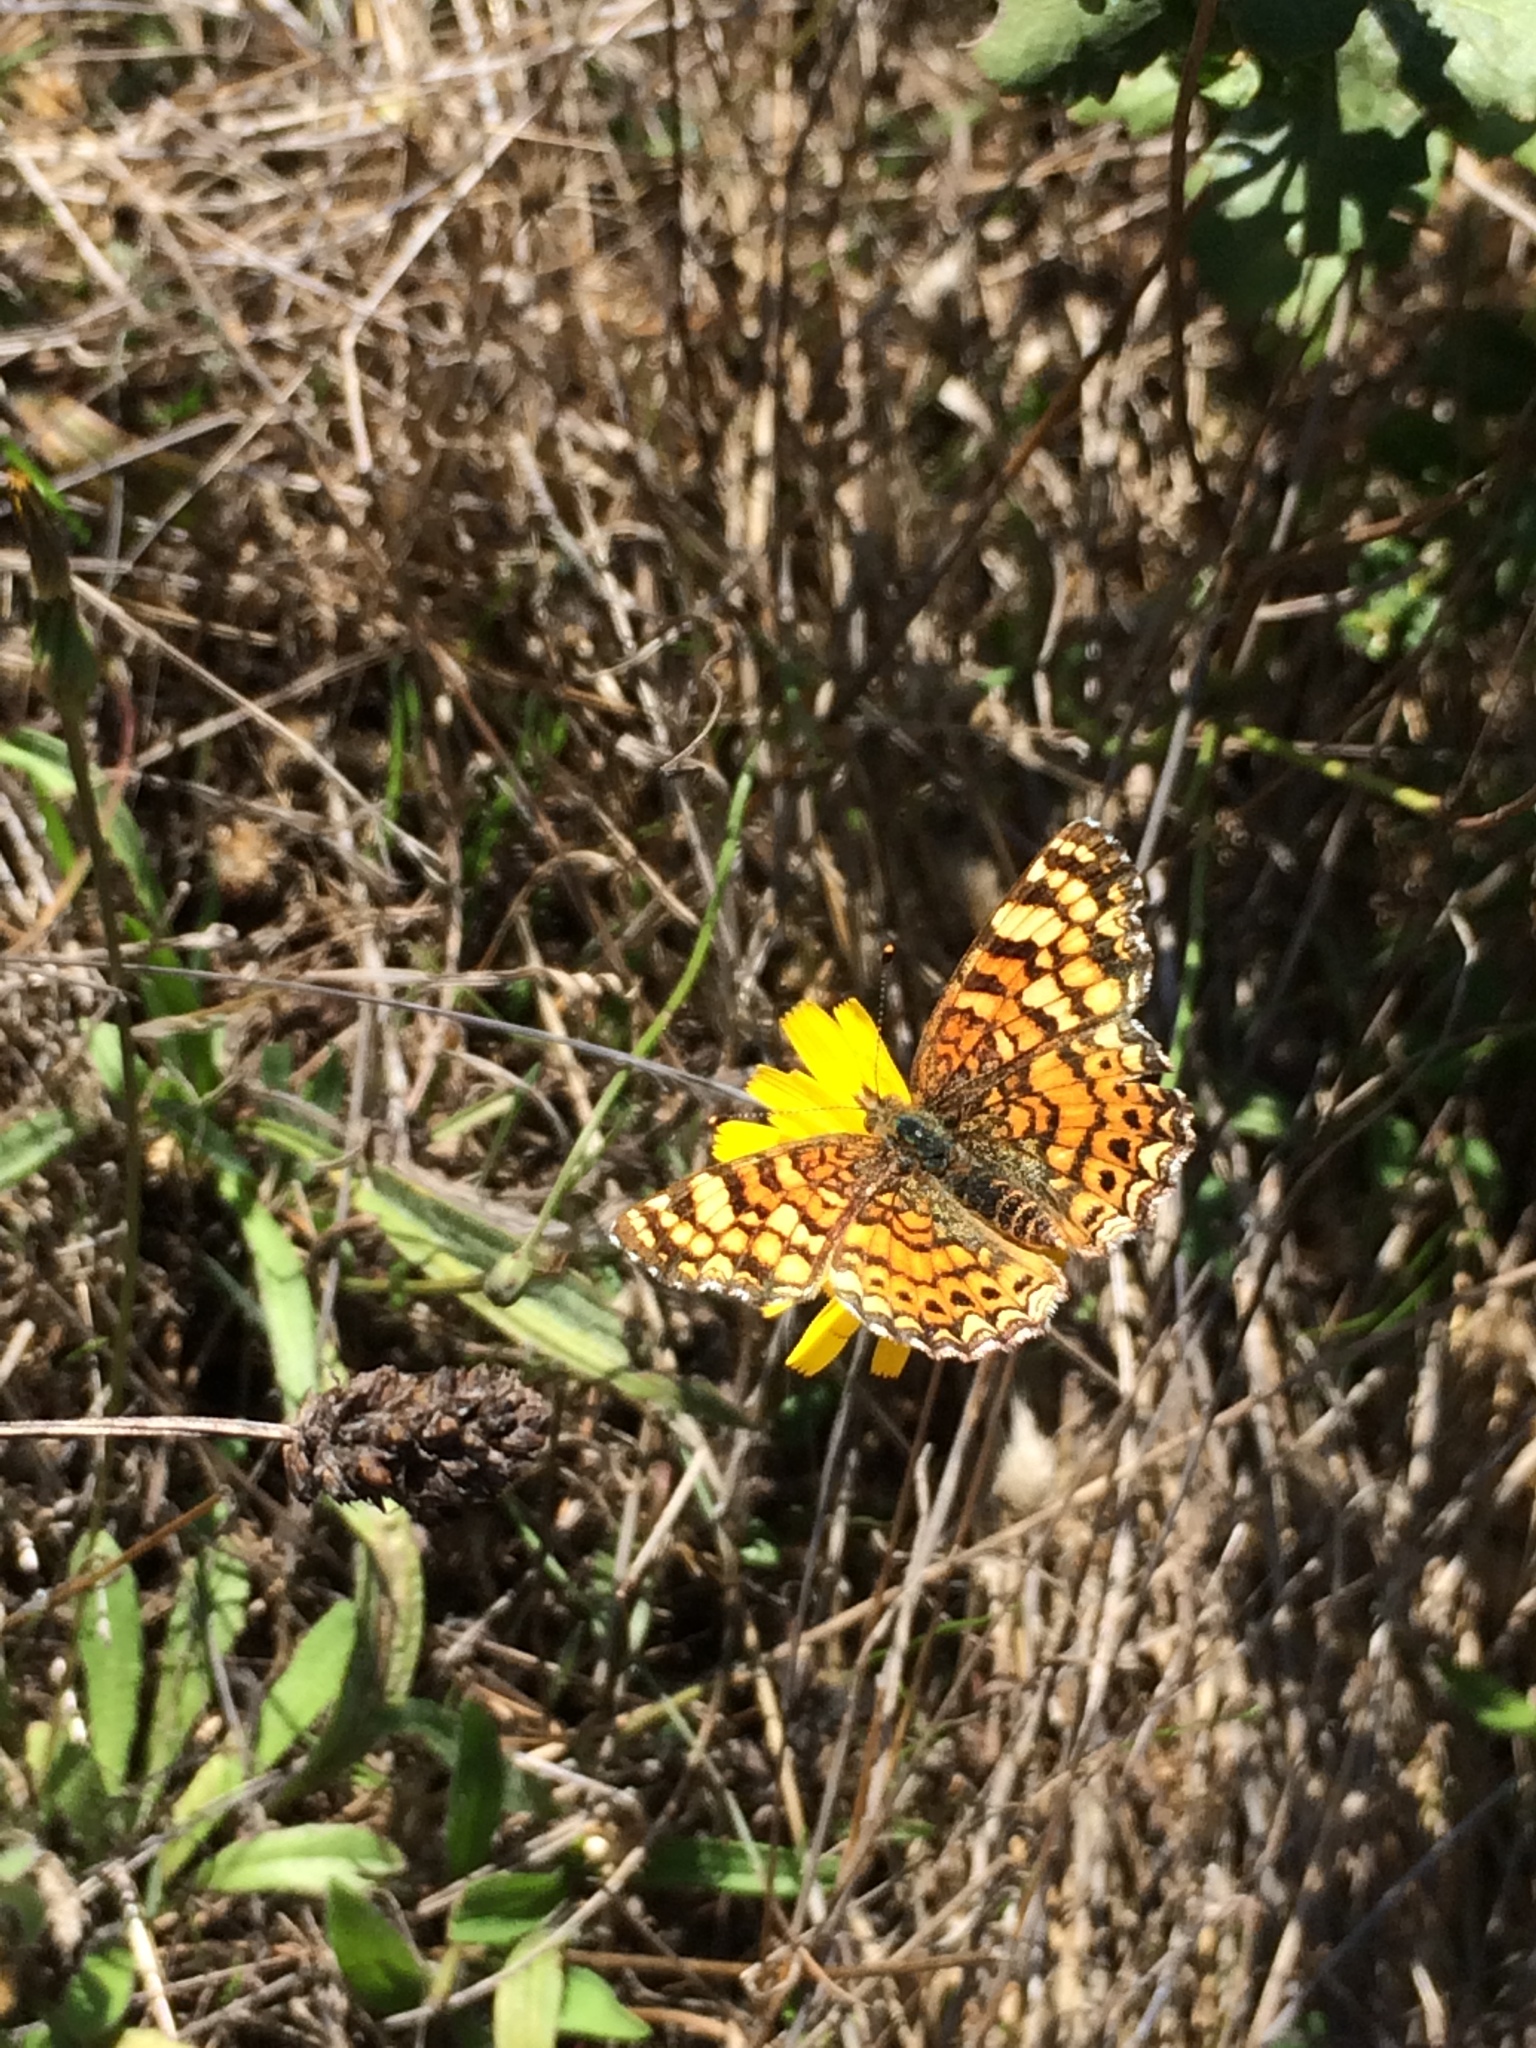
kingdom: Animalia
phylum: Arthropoda
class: Insecta
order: Lepidoptera
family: Nymphalidae
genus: Eresia
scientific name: Eresia aveyrona
